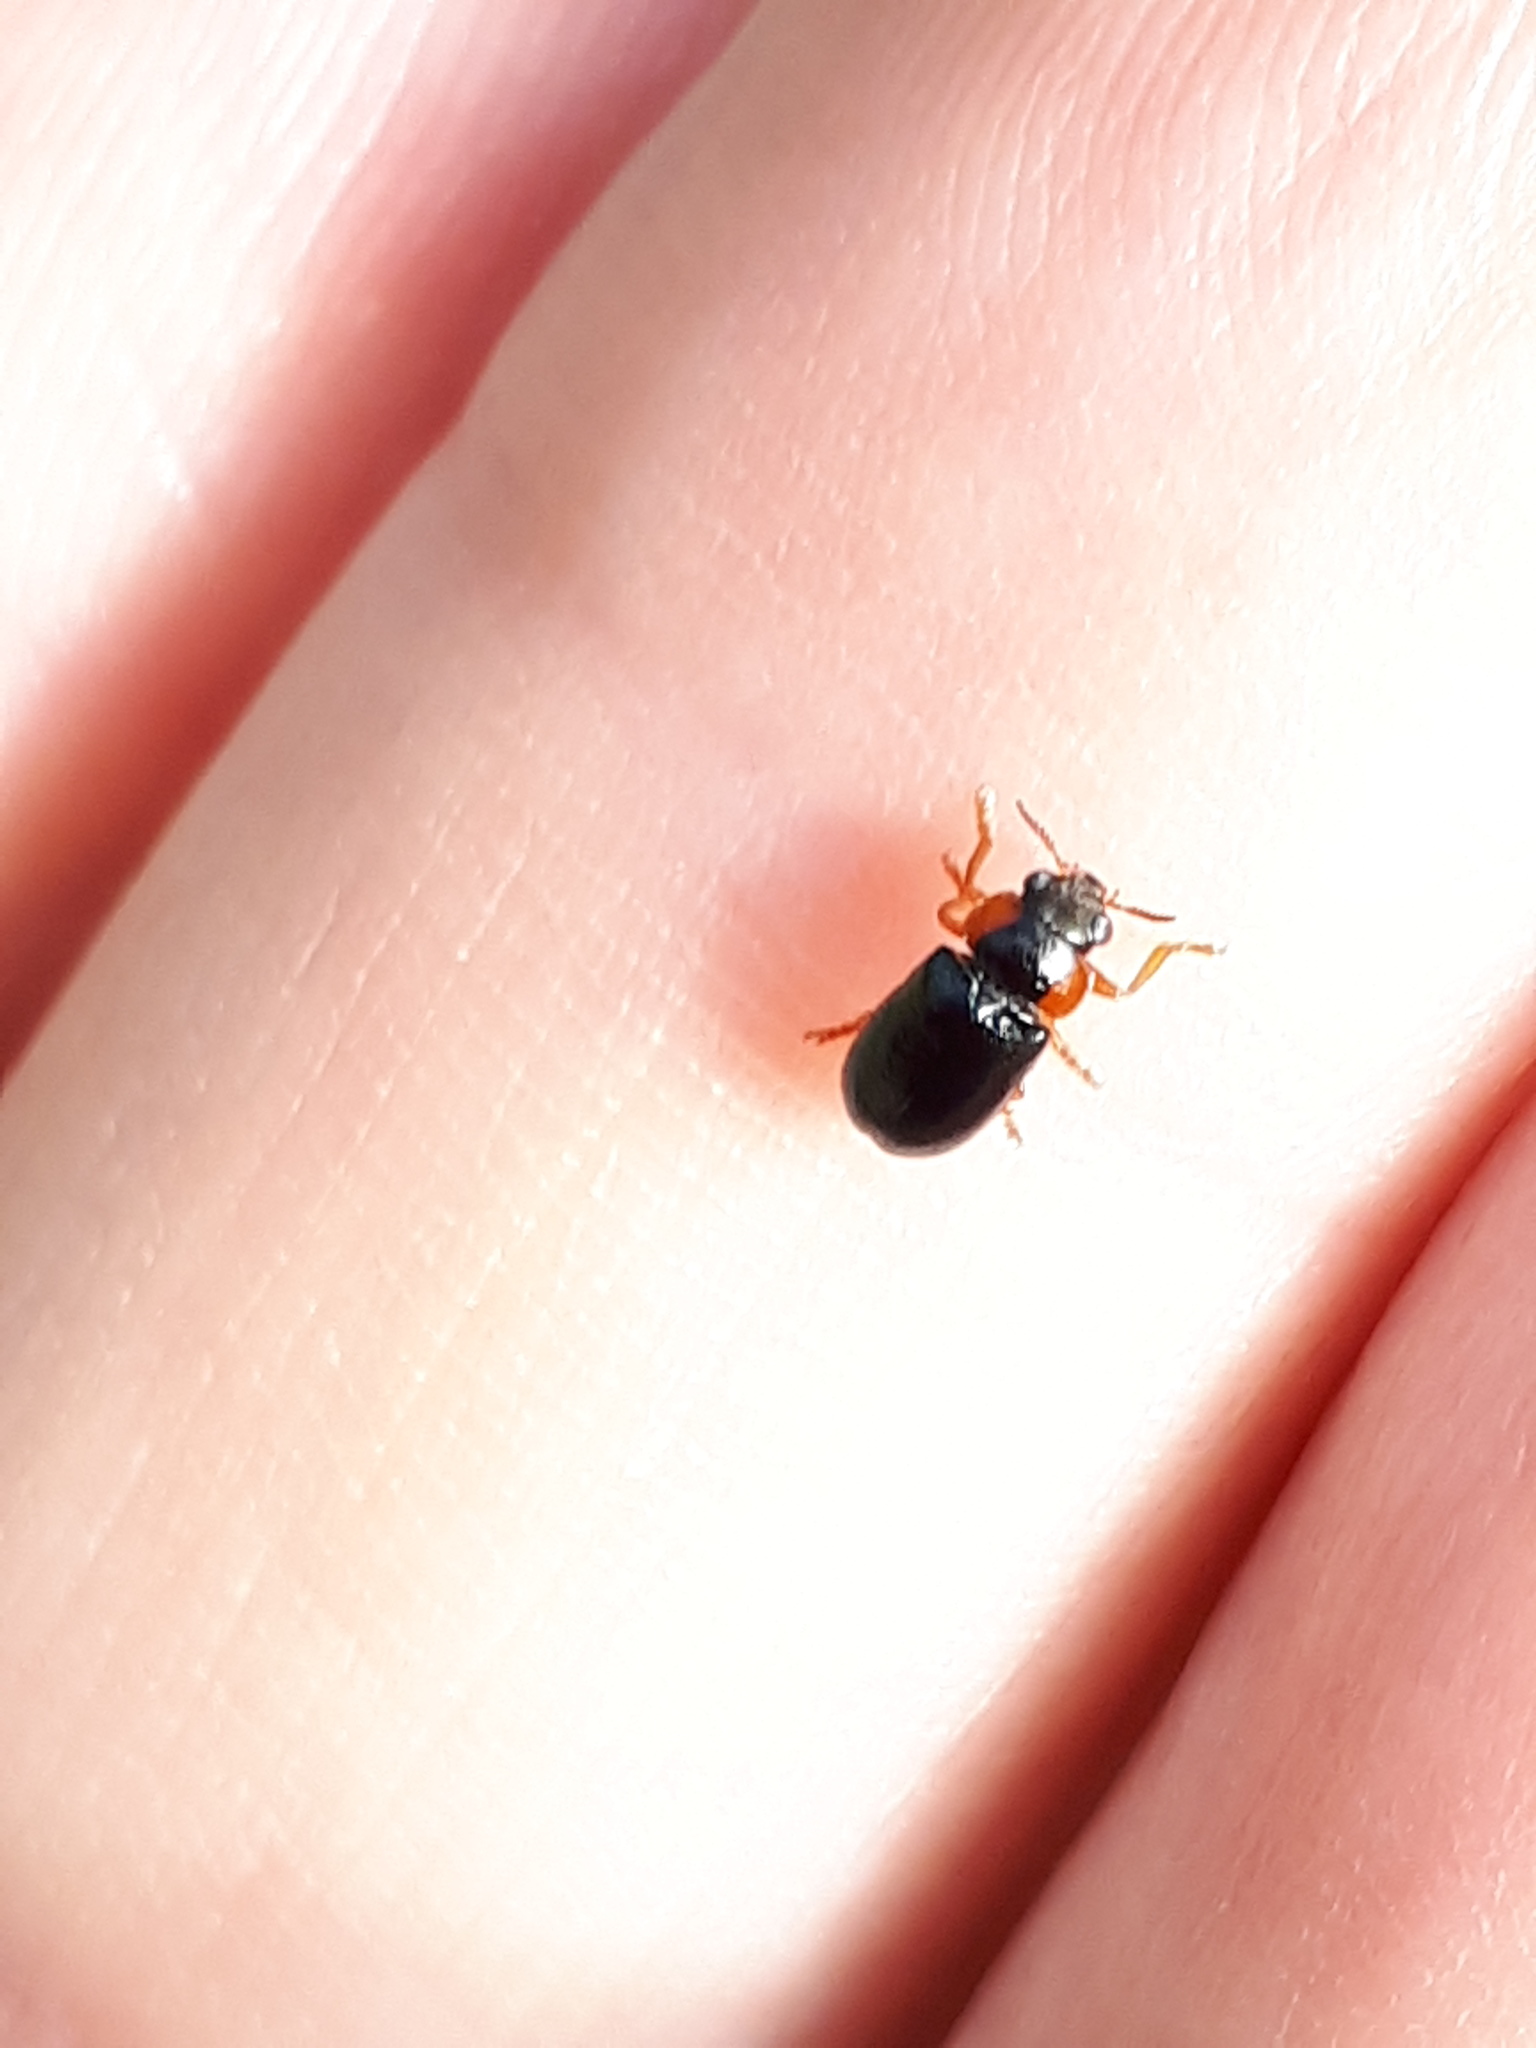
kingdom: Animalia
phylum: Arthropoda
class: Insecta
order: Coleoptera
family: Chrysomelidae
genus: Smaragdina
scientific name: Smaragdina aurita
